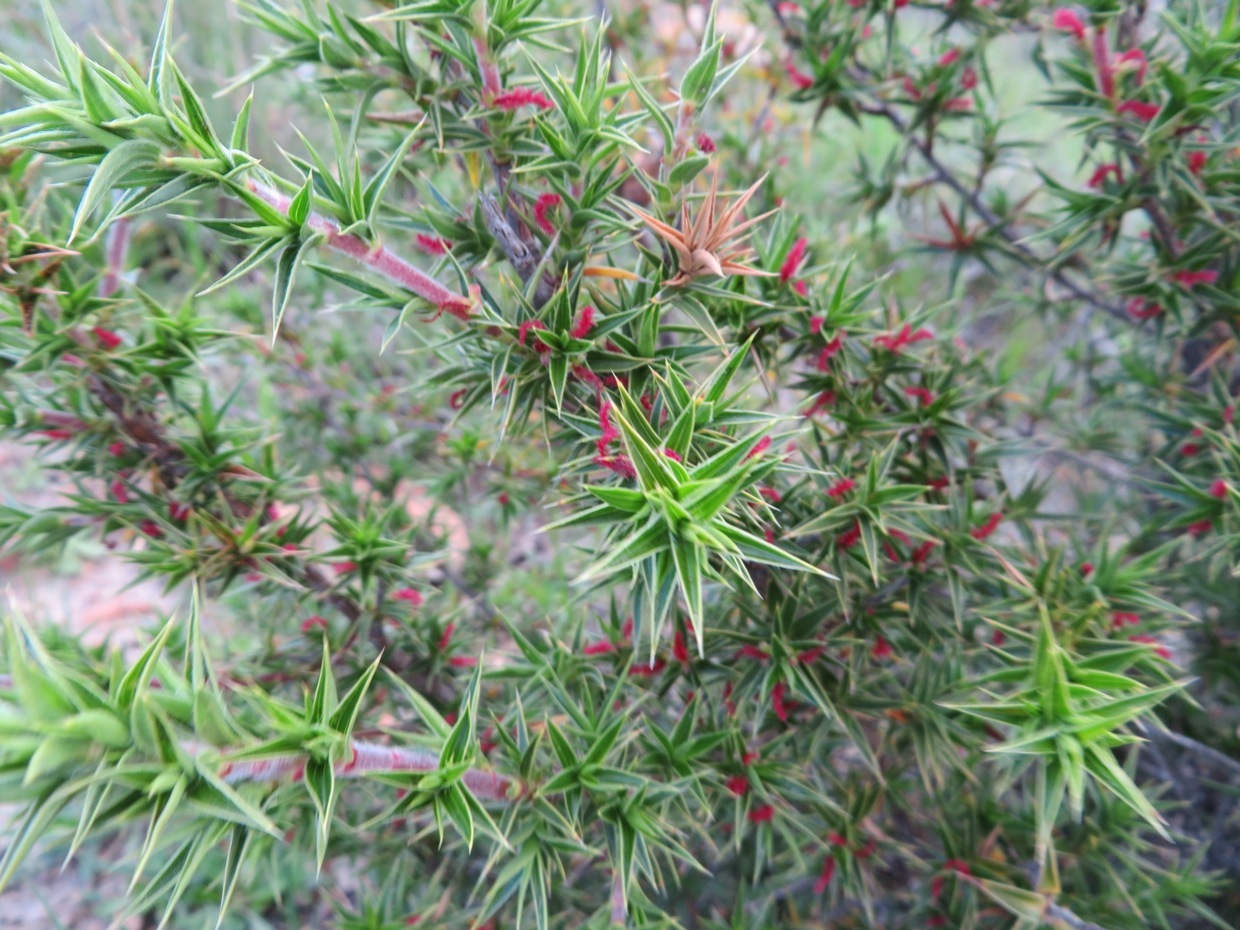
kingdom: Plantae
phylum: Tracheophyta
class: Magnoliopsida
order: Rosales
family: Rosaceae
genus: Cliffortia
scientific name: Cliffortia ruscifolia
